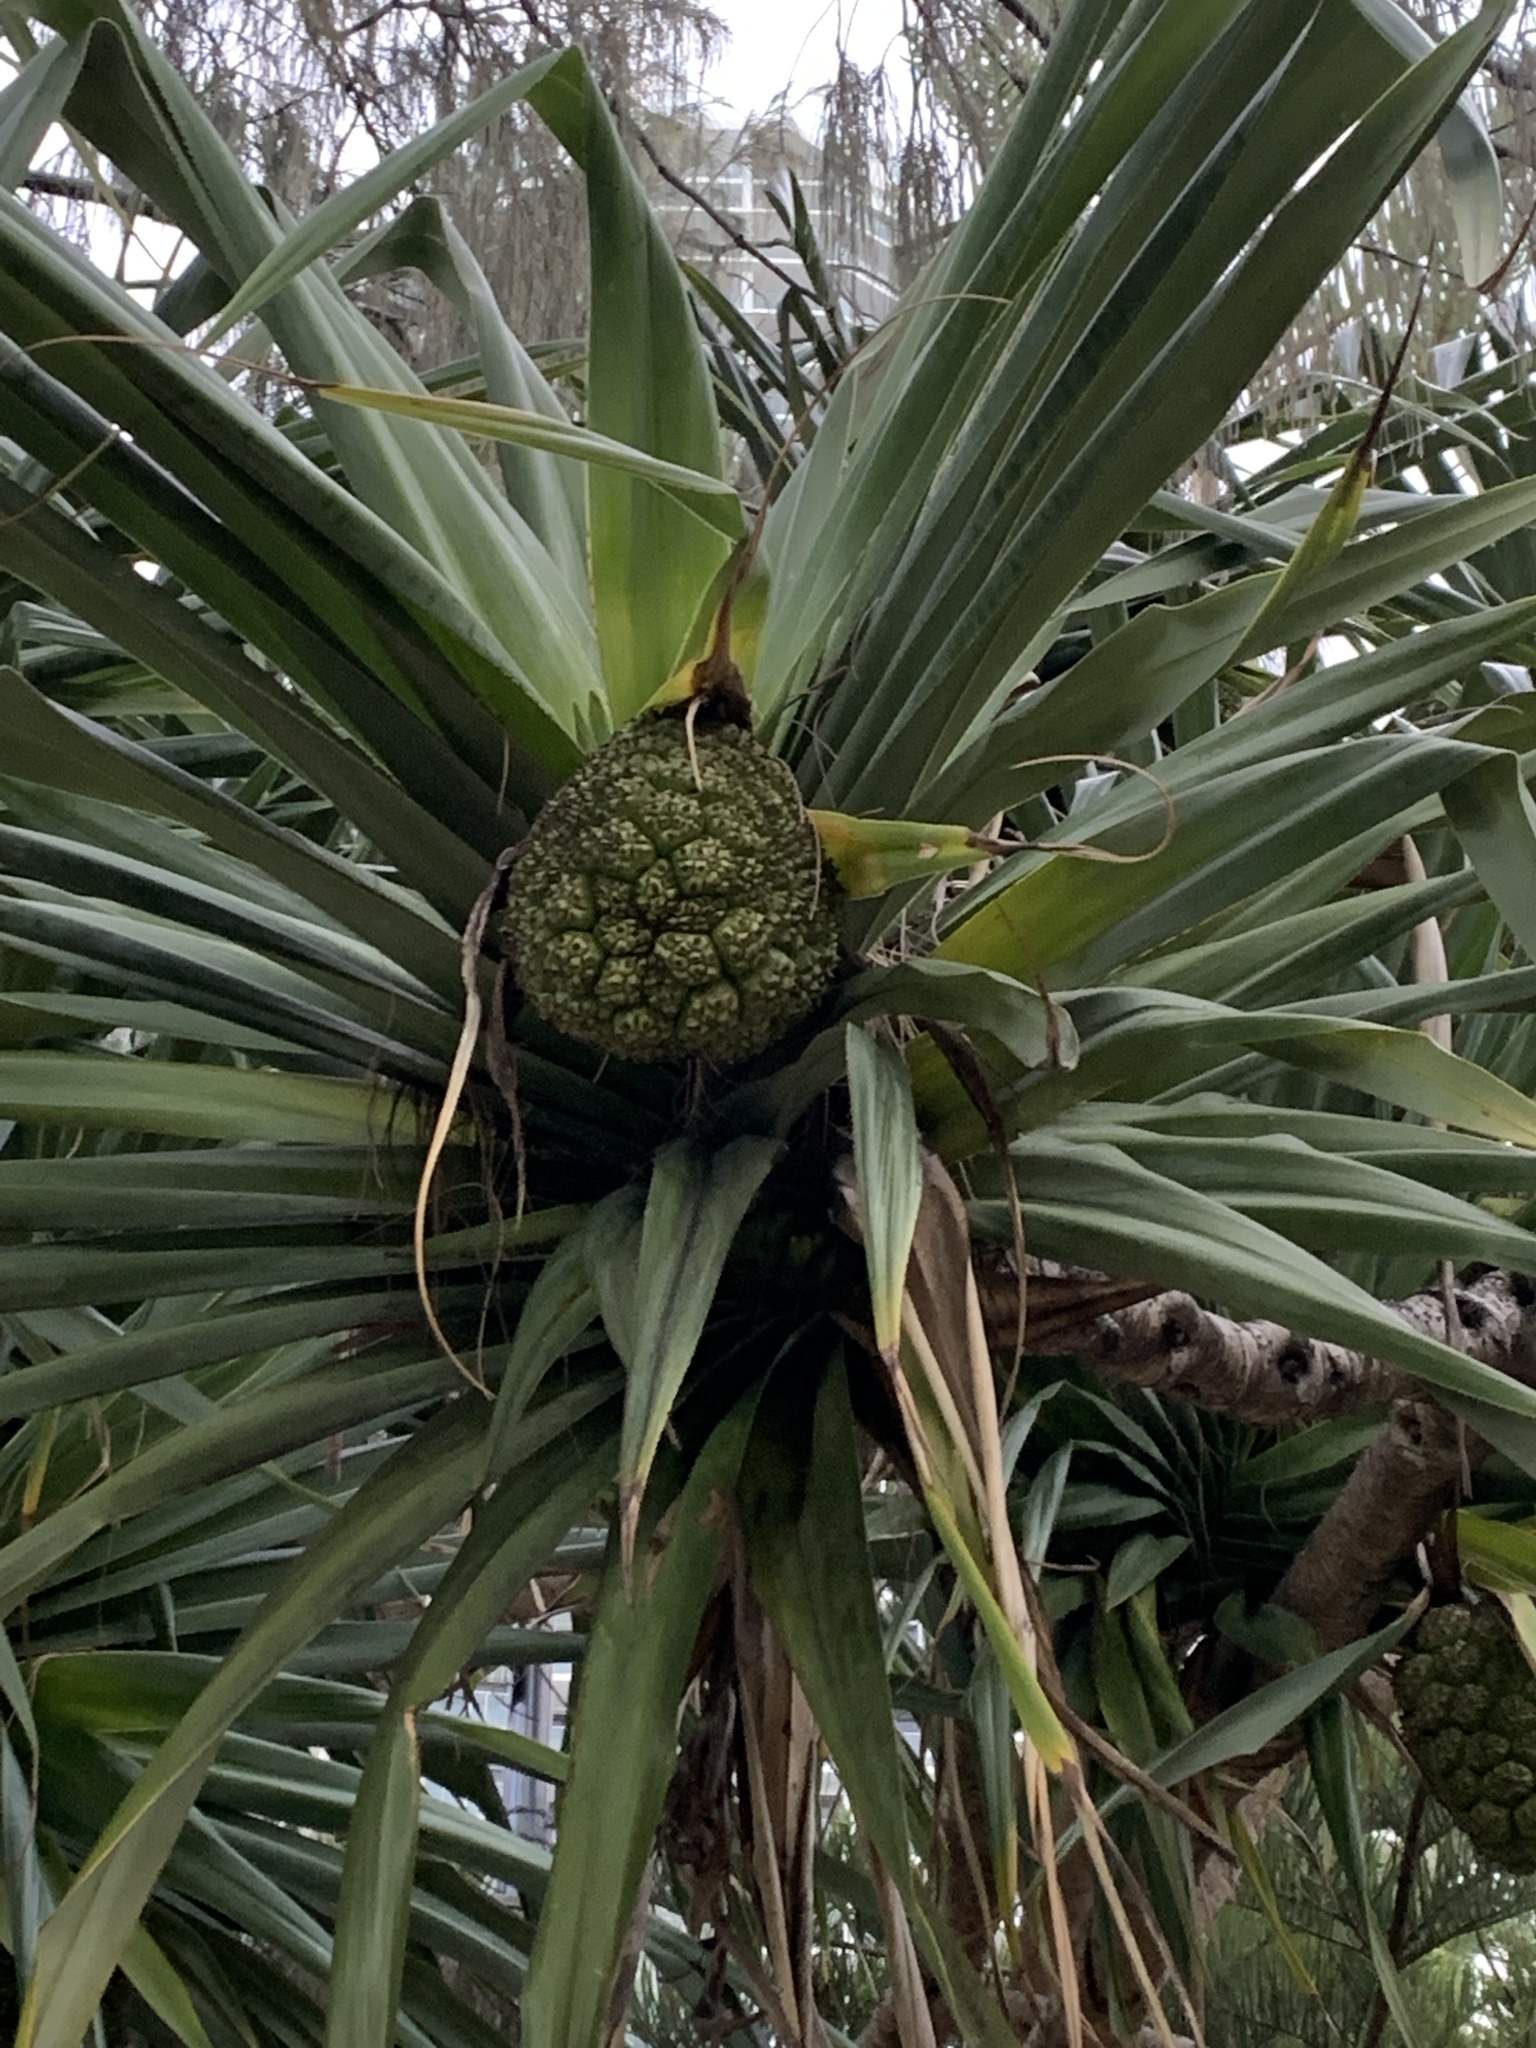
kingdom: Plantae
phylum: Tracheophyta
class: Liliopsida
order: Pandanales
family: Pandanaceae
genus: Pandanus
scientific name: Pandanus tectorius
